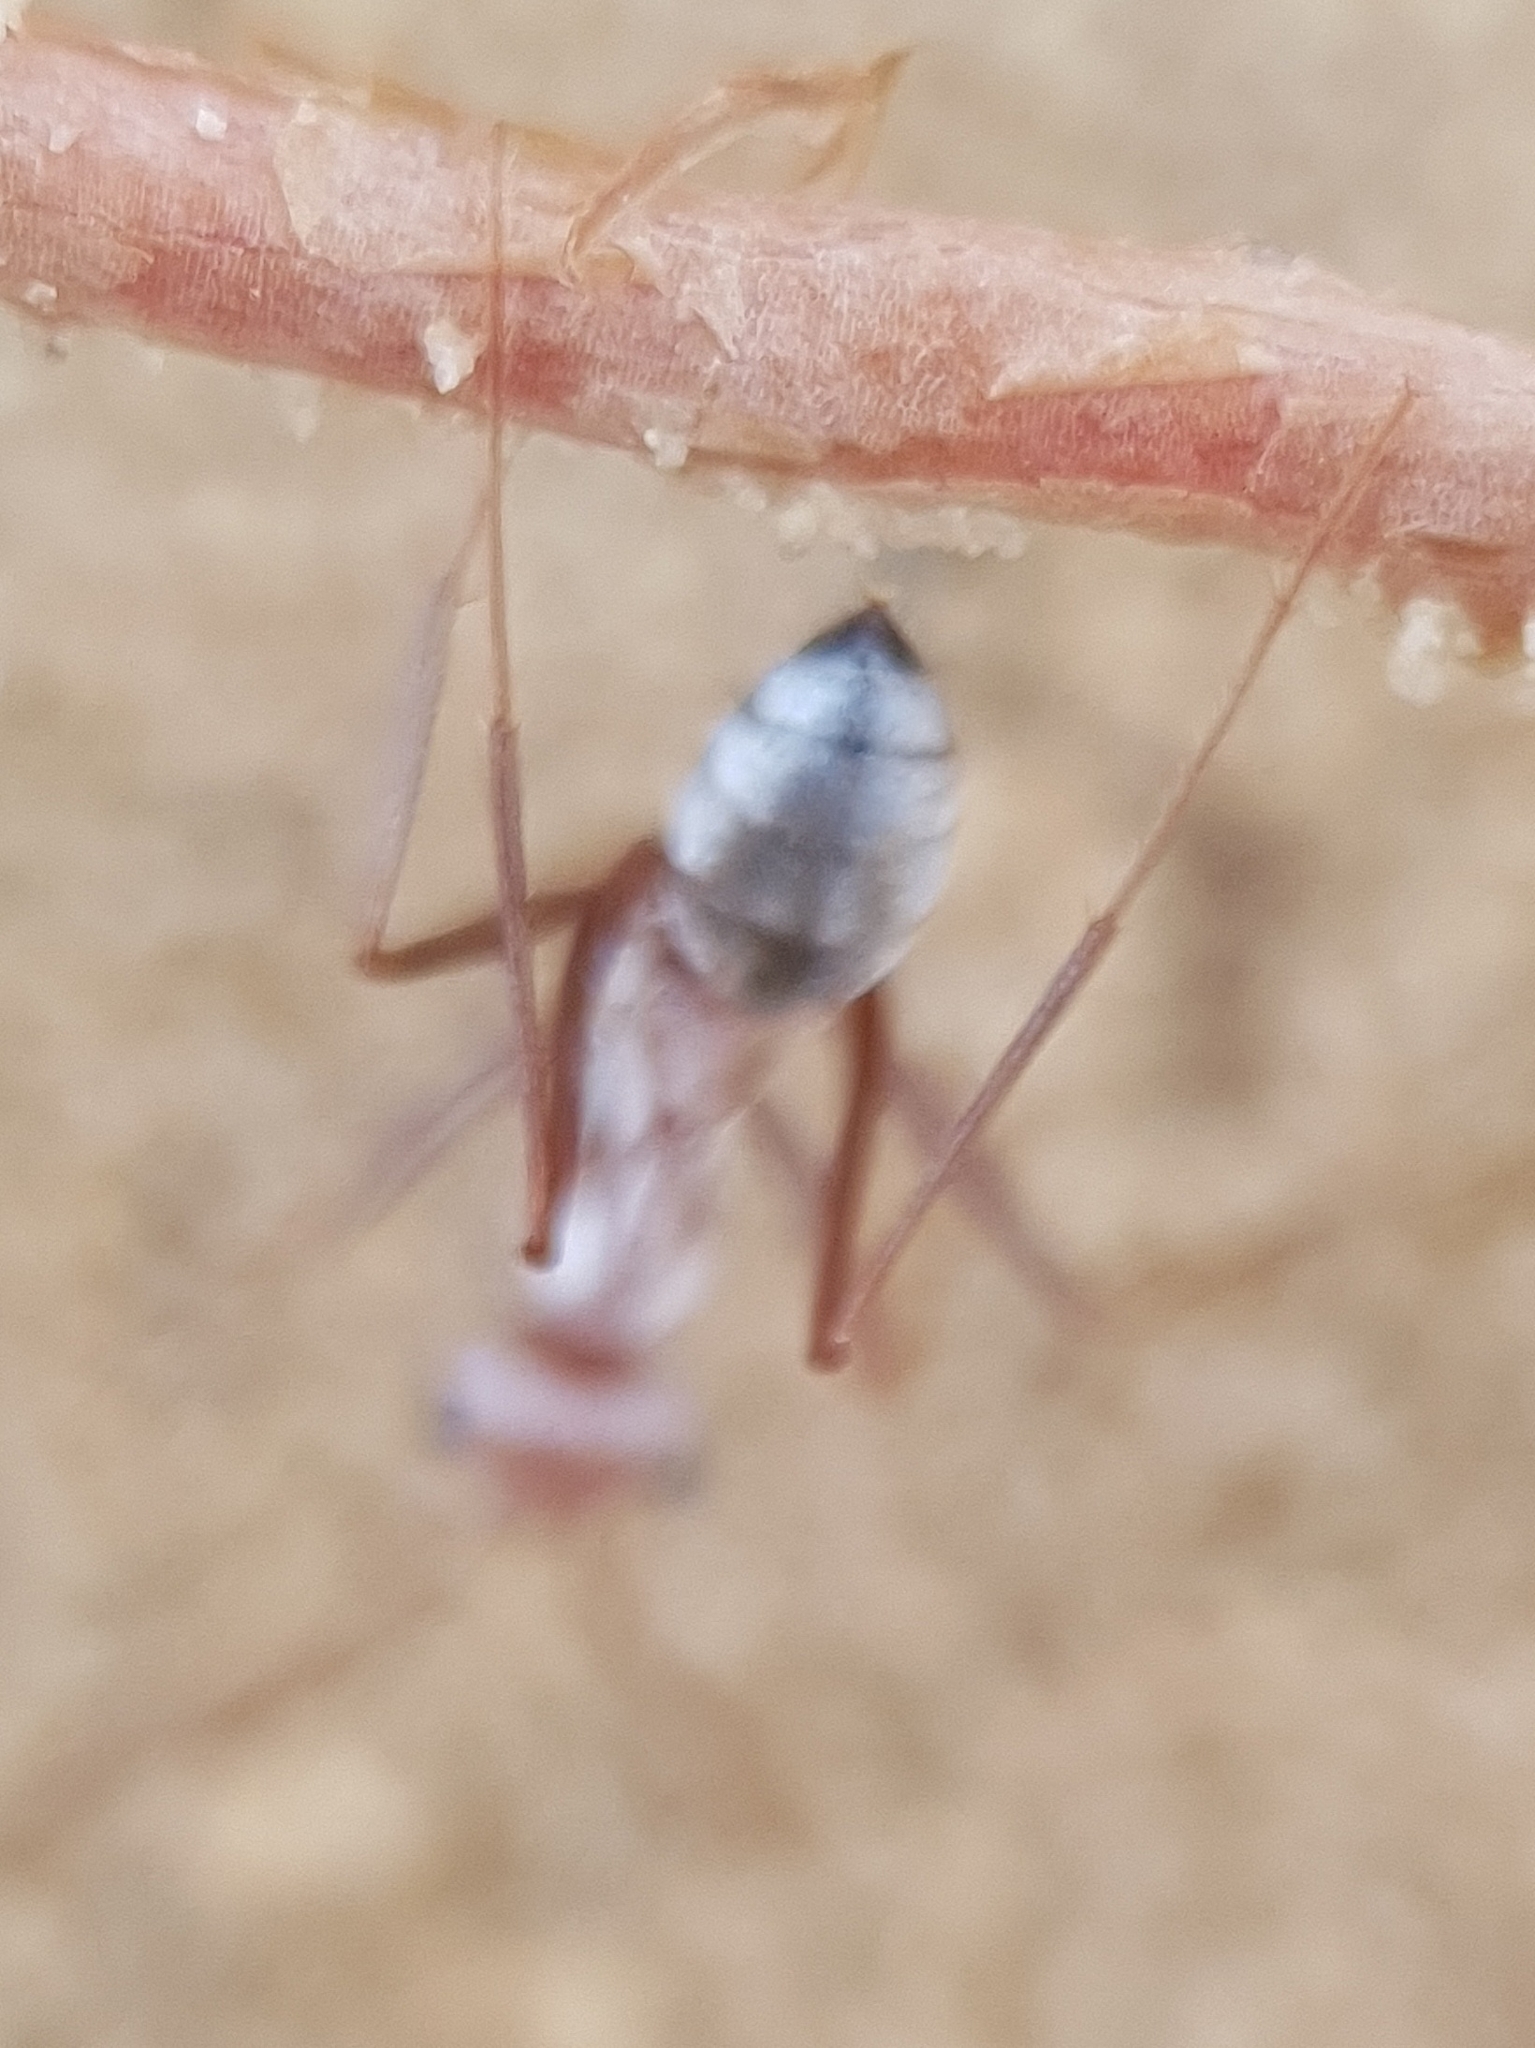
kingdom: Animalia
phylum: Arthropoda
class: Insecta
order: Hymenoptera
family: Formicidae
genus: Cataglyphis
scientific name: Cataglyphis bombycinus
